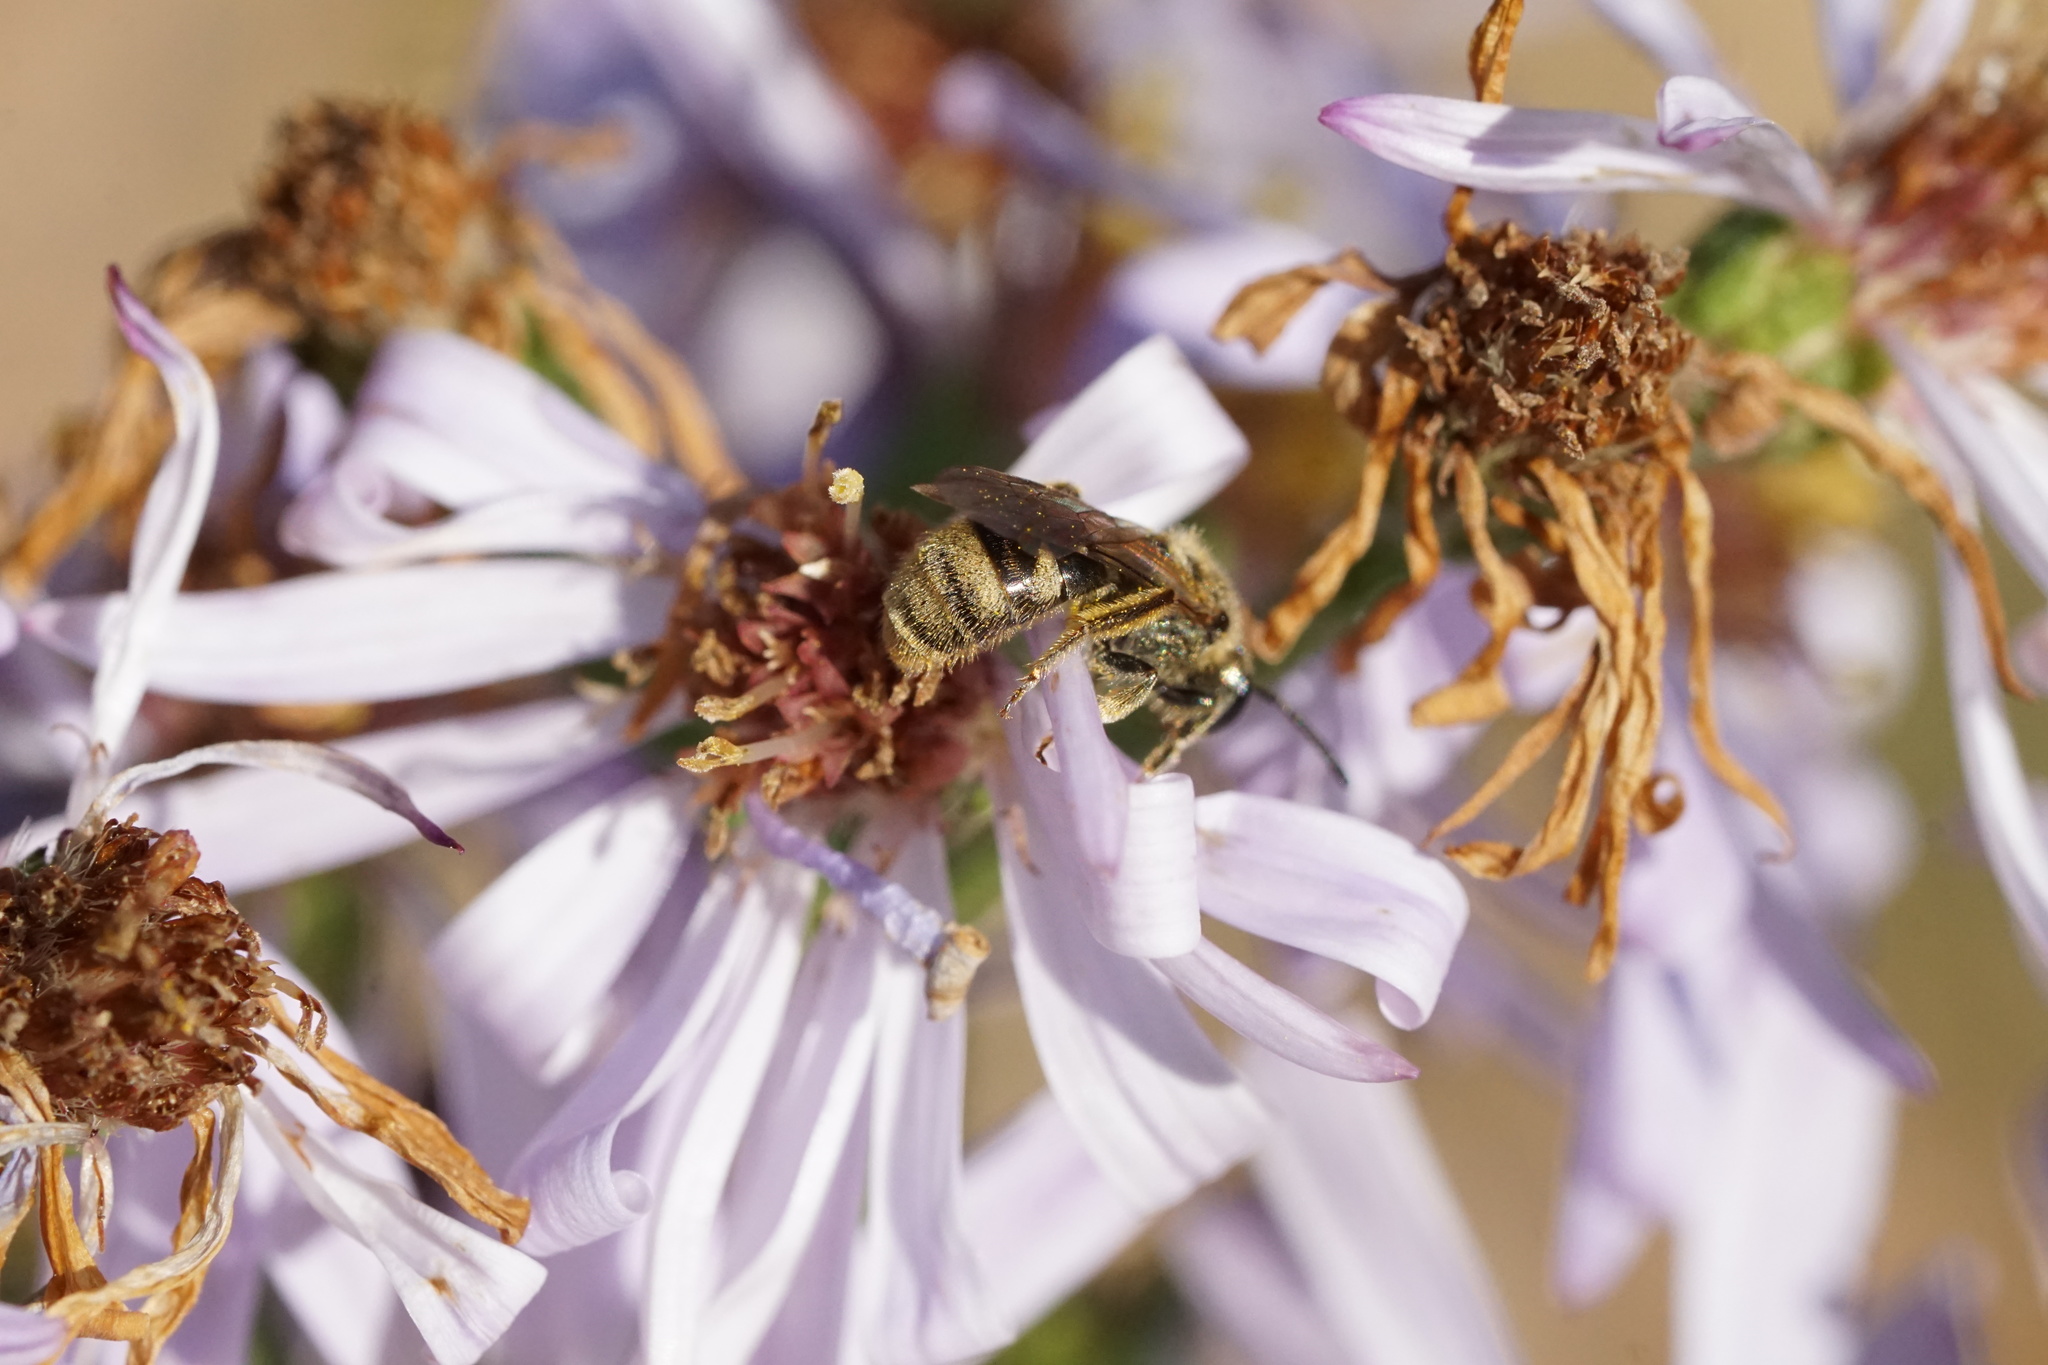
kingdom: Animalia
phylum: Arthropoda
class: Insecta
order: Hymenoptera
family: Halictidae
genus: Dialictus
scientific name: Dialictus
